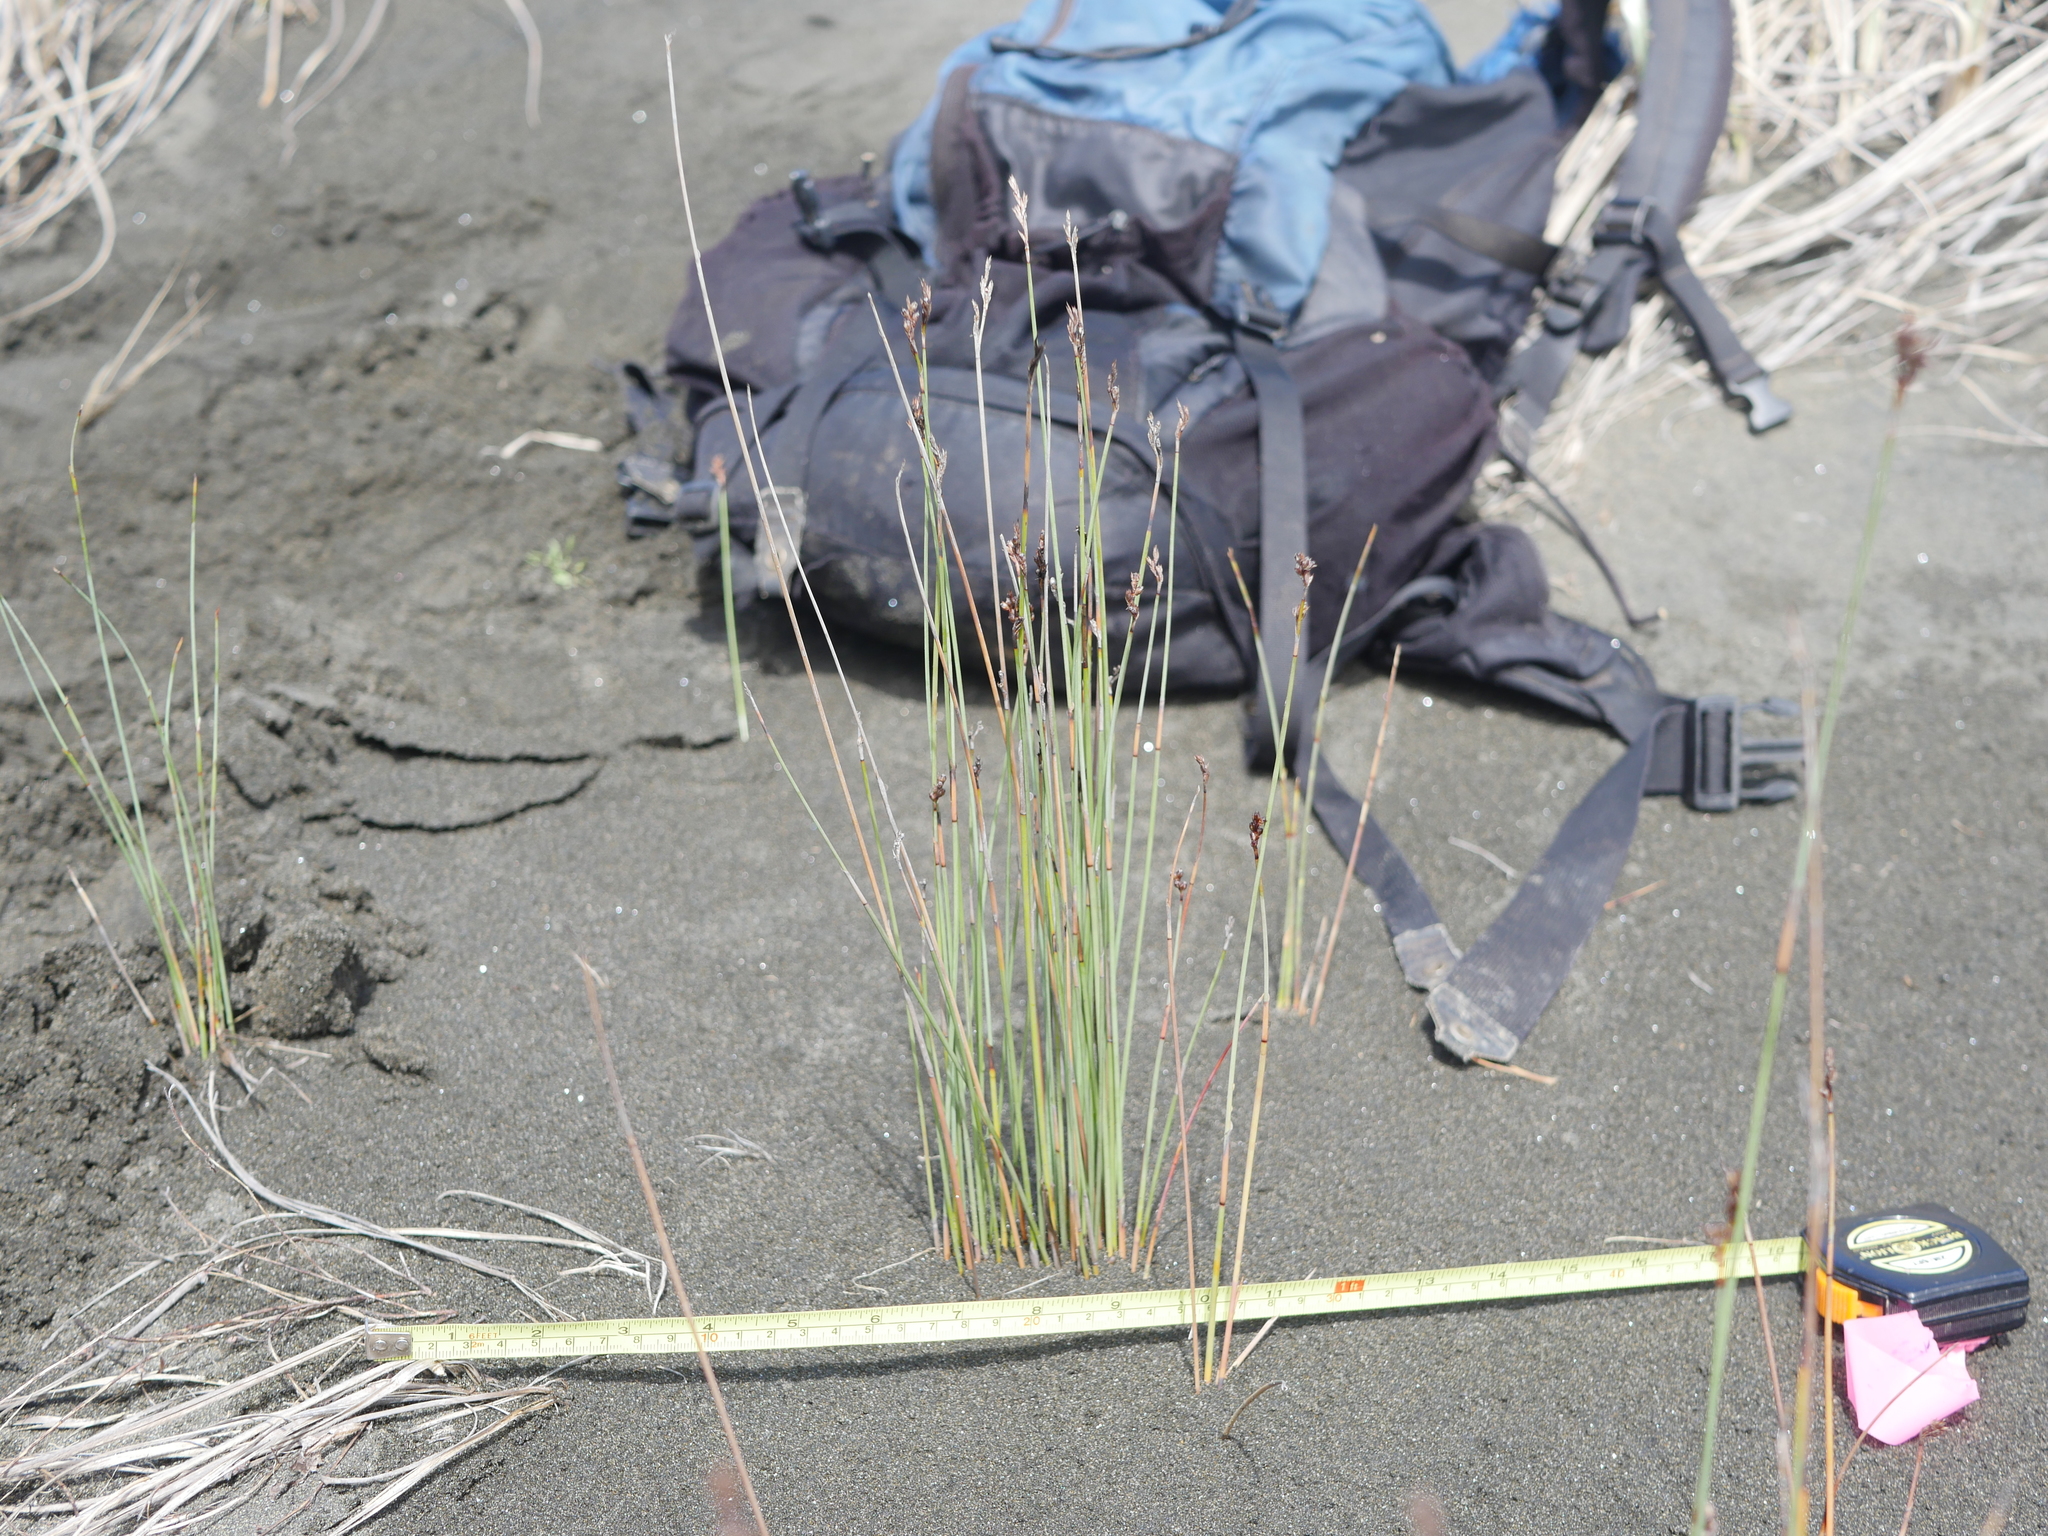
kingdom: Plantae
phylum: Tracheophyta
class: Liliopsida
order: Poales
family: Cyperaceae
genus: Machaerina
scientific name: Machaerina juncea
